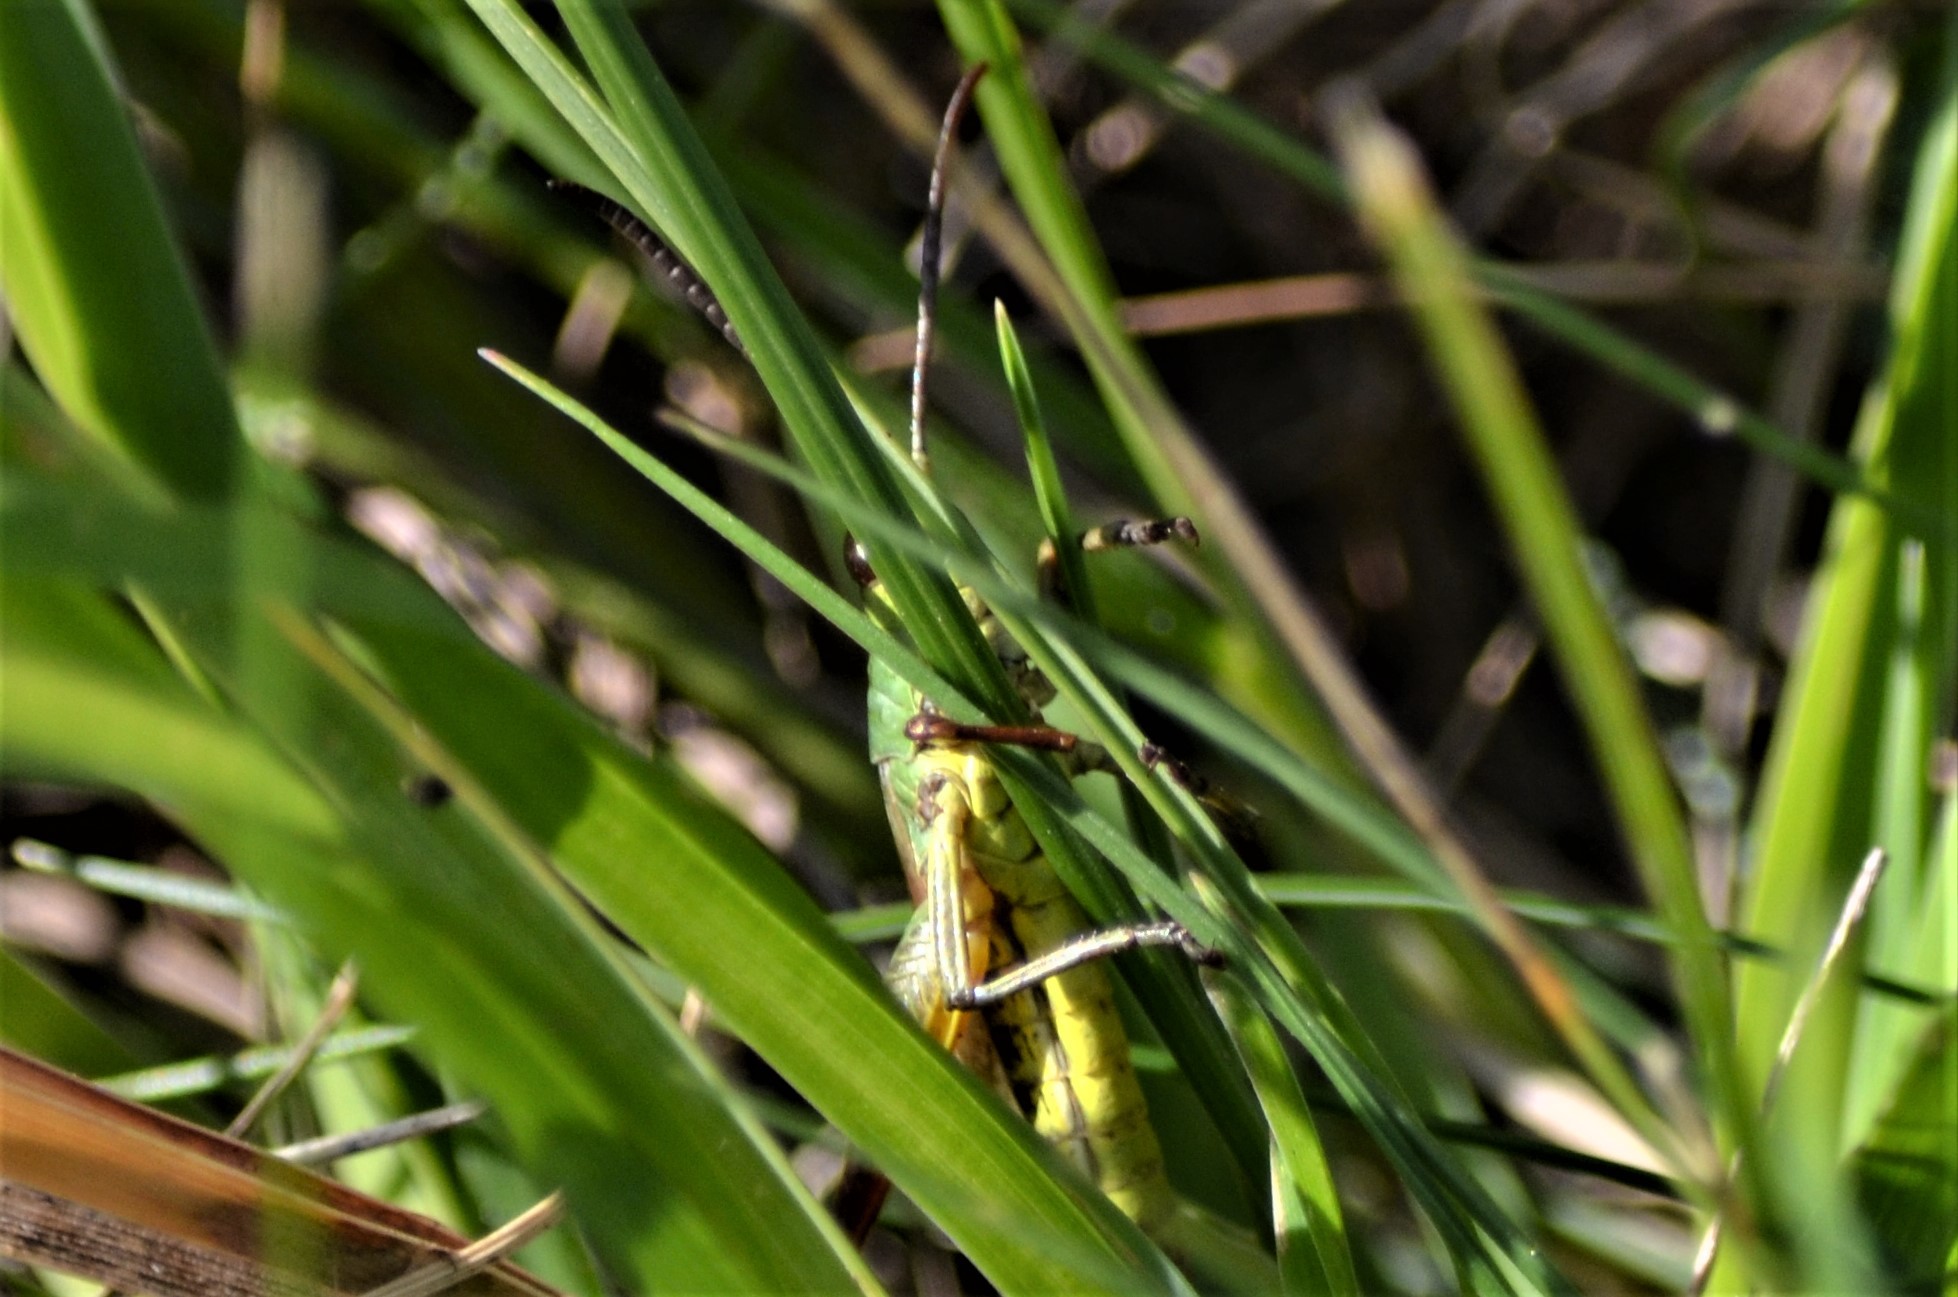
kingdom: Animalia
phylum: Arthropoda
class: Insecta
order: Orthoptera
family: Acrididae
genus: Pseudochorthippus
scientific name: Pseudochorthippus parallelus
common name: Meadow grasshopper
